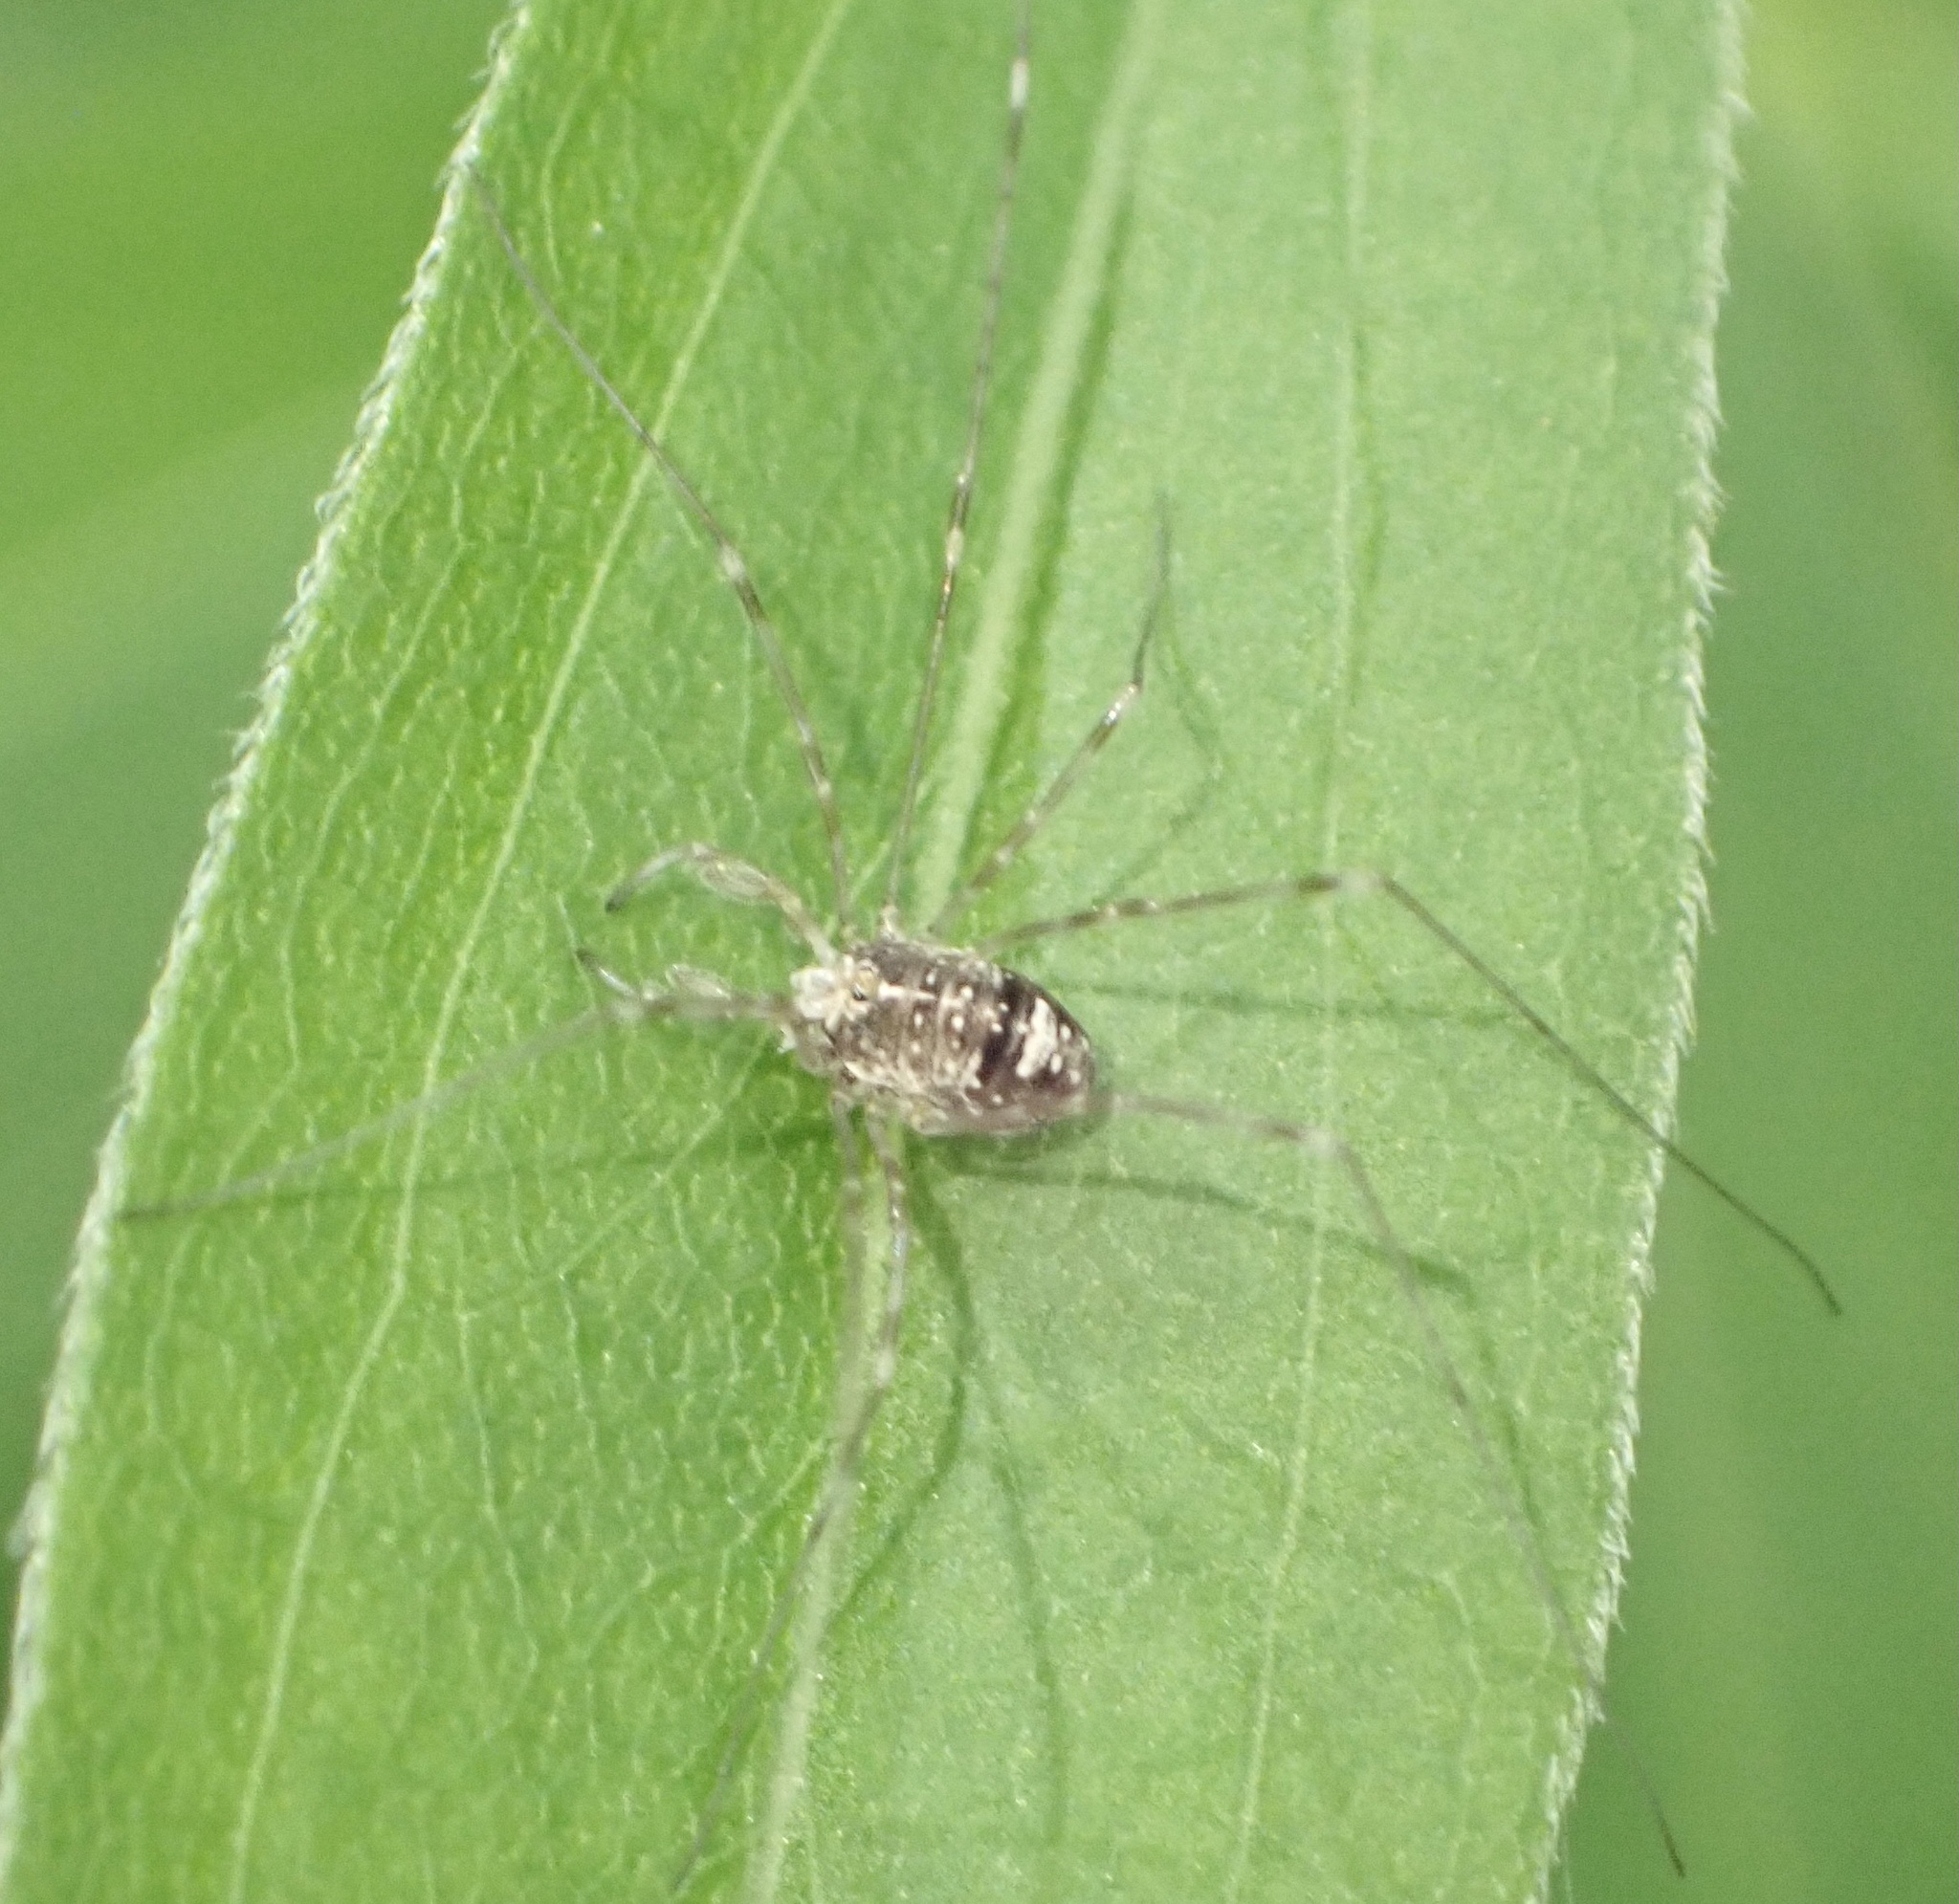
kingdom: Animalia
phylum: Arthropoda
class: Arachnida
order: Opiliones
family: Phalangiidae
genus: Dicranopalpus
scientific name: Dicranopalpus ramosus
